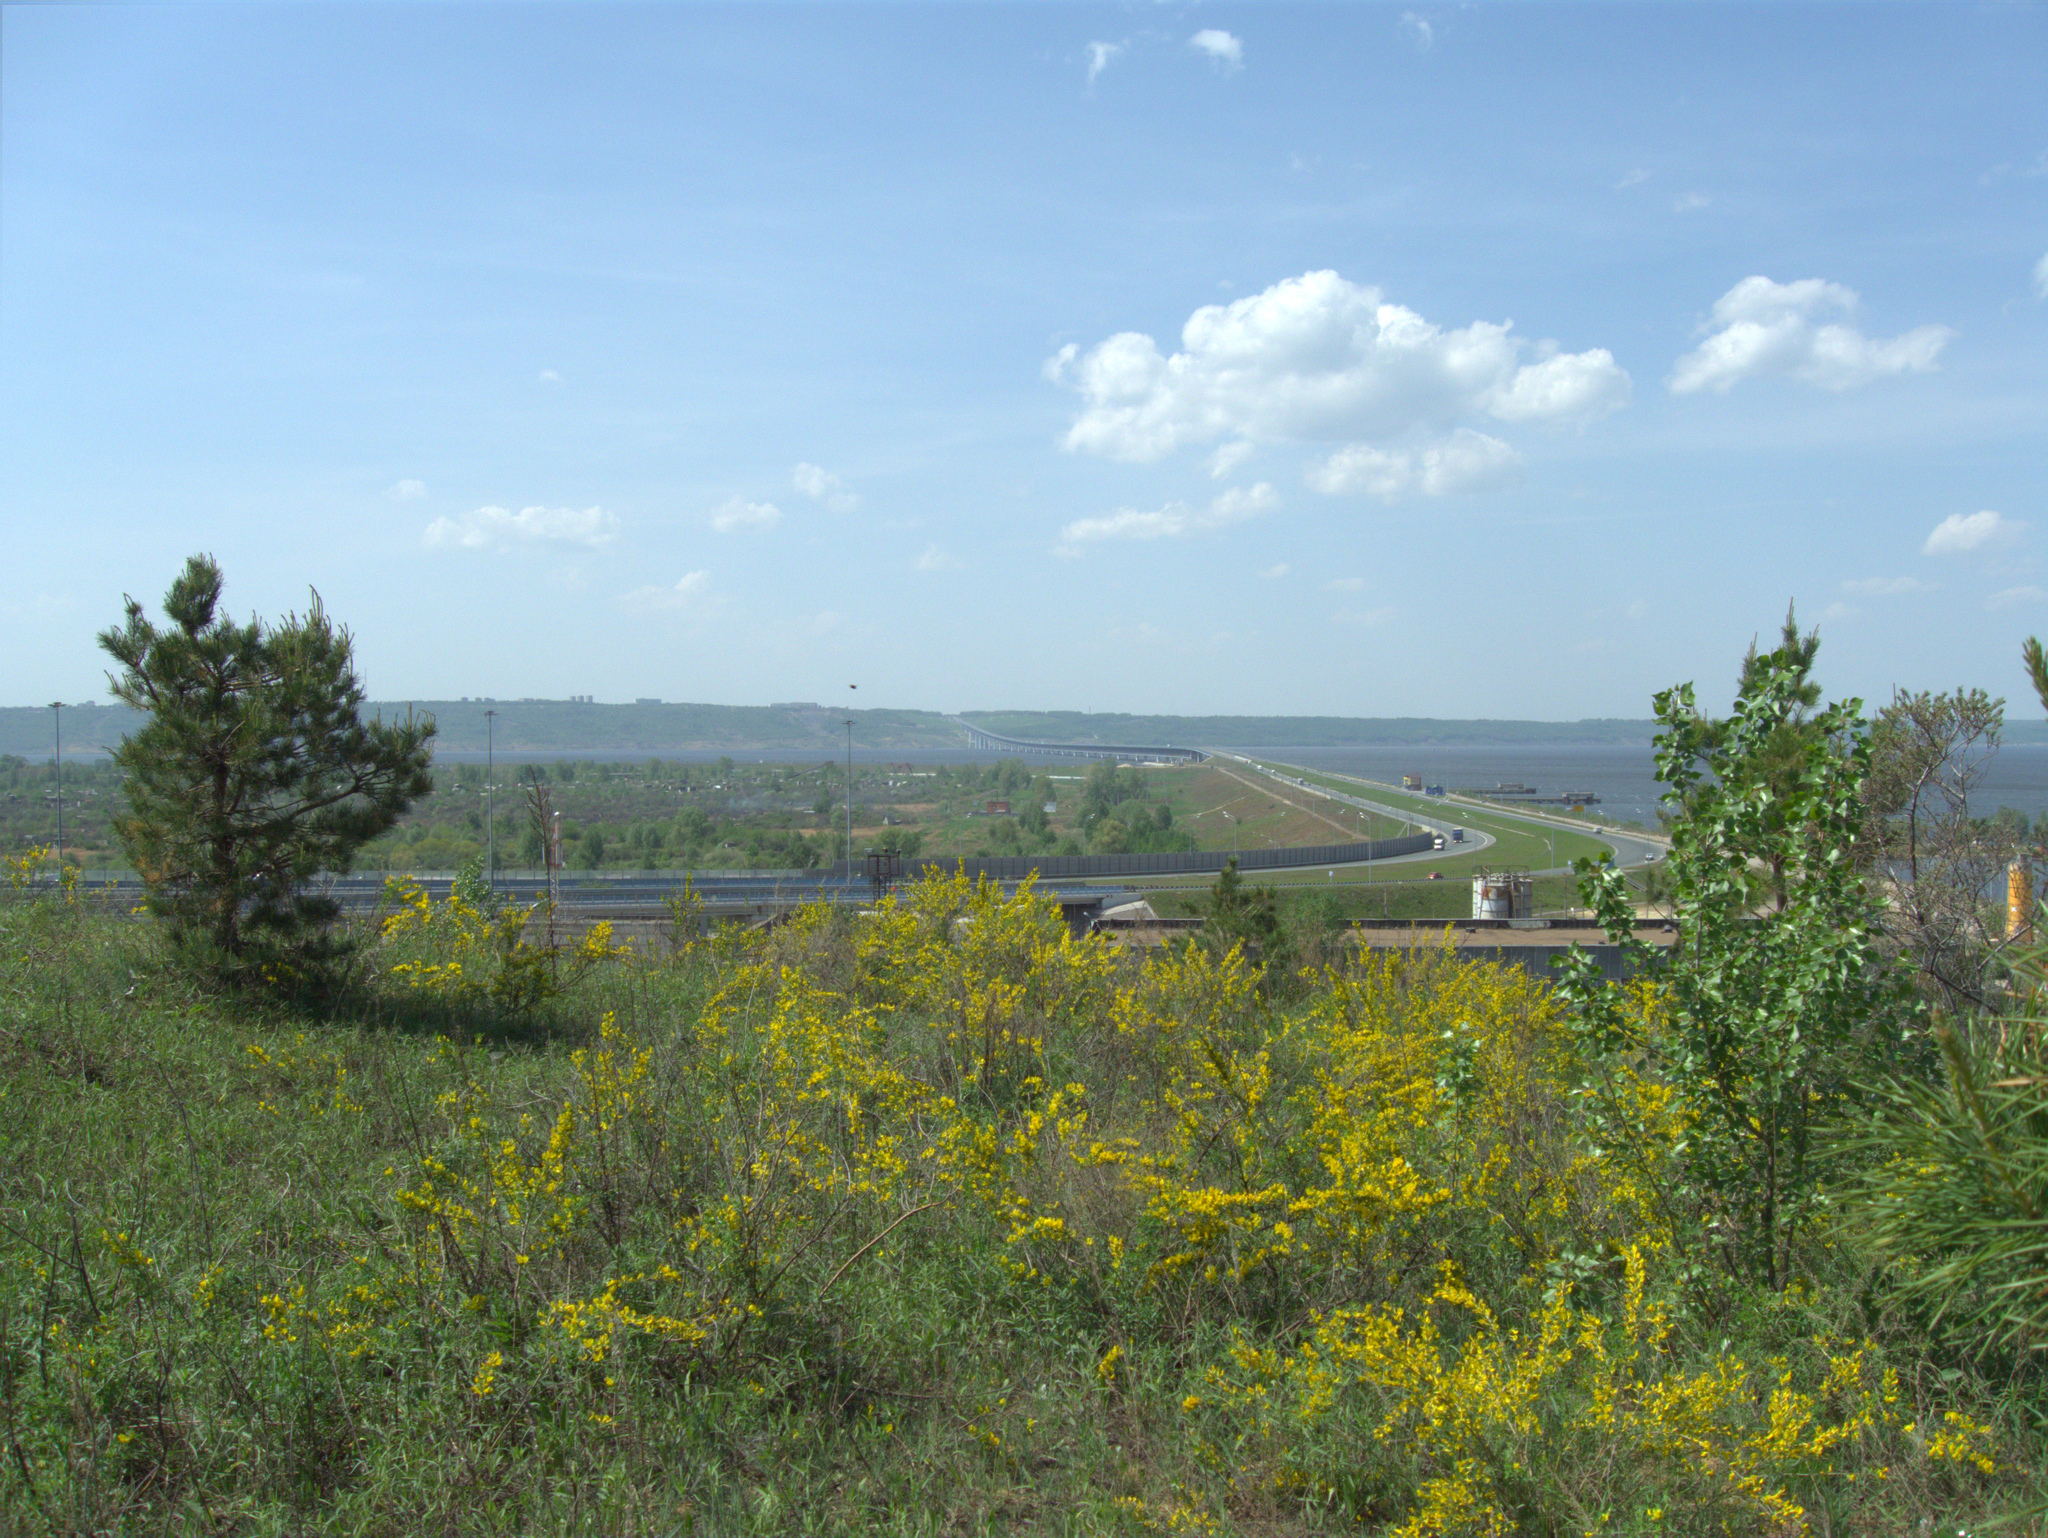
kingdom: Plantae
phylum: Tracheophyta
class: Magnoliopsida
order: Fabales
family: Fabaceae
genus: Chamaecytisus
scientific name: Chamaecytisus ruthenicus
